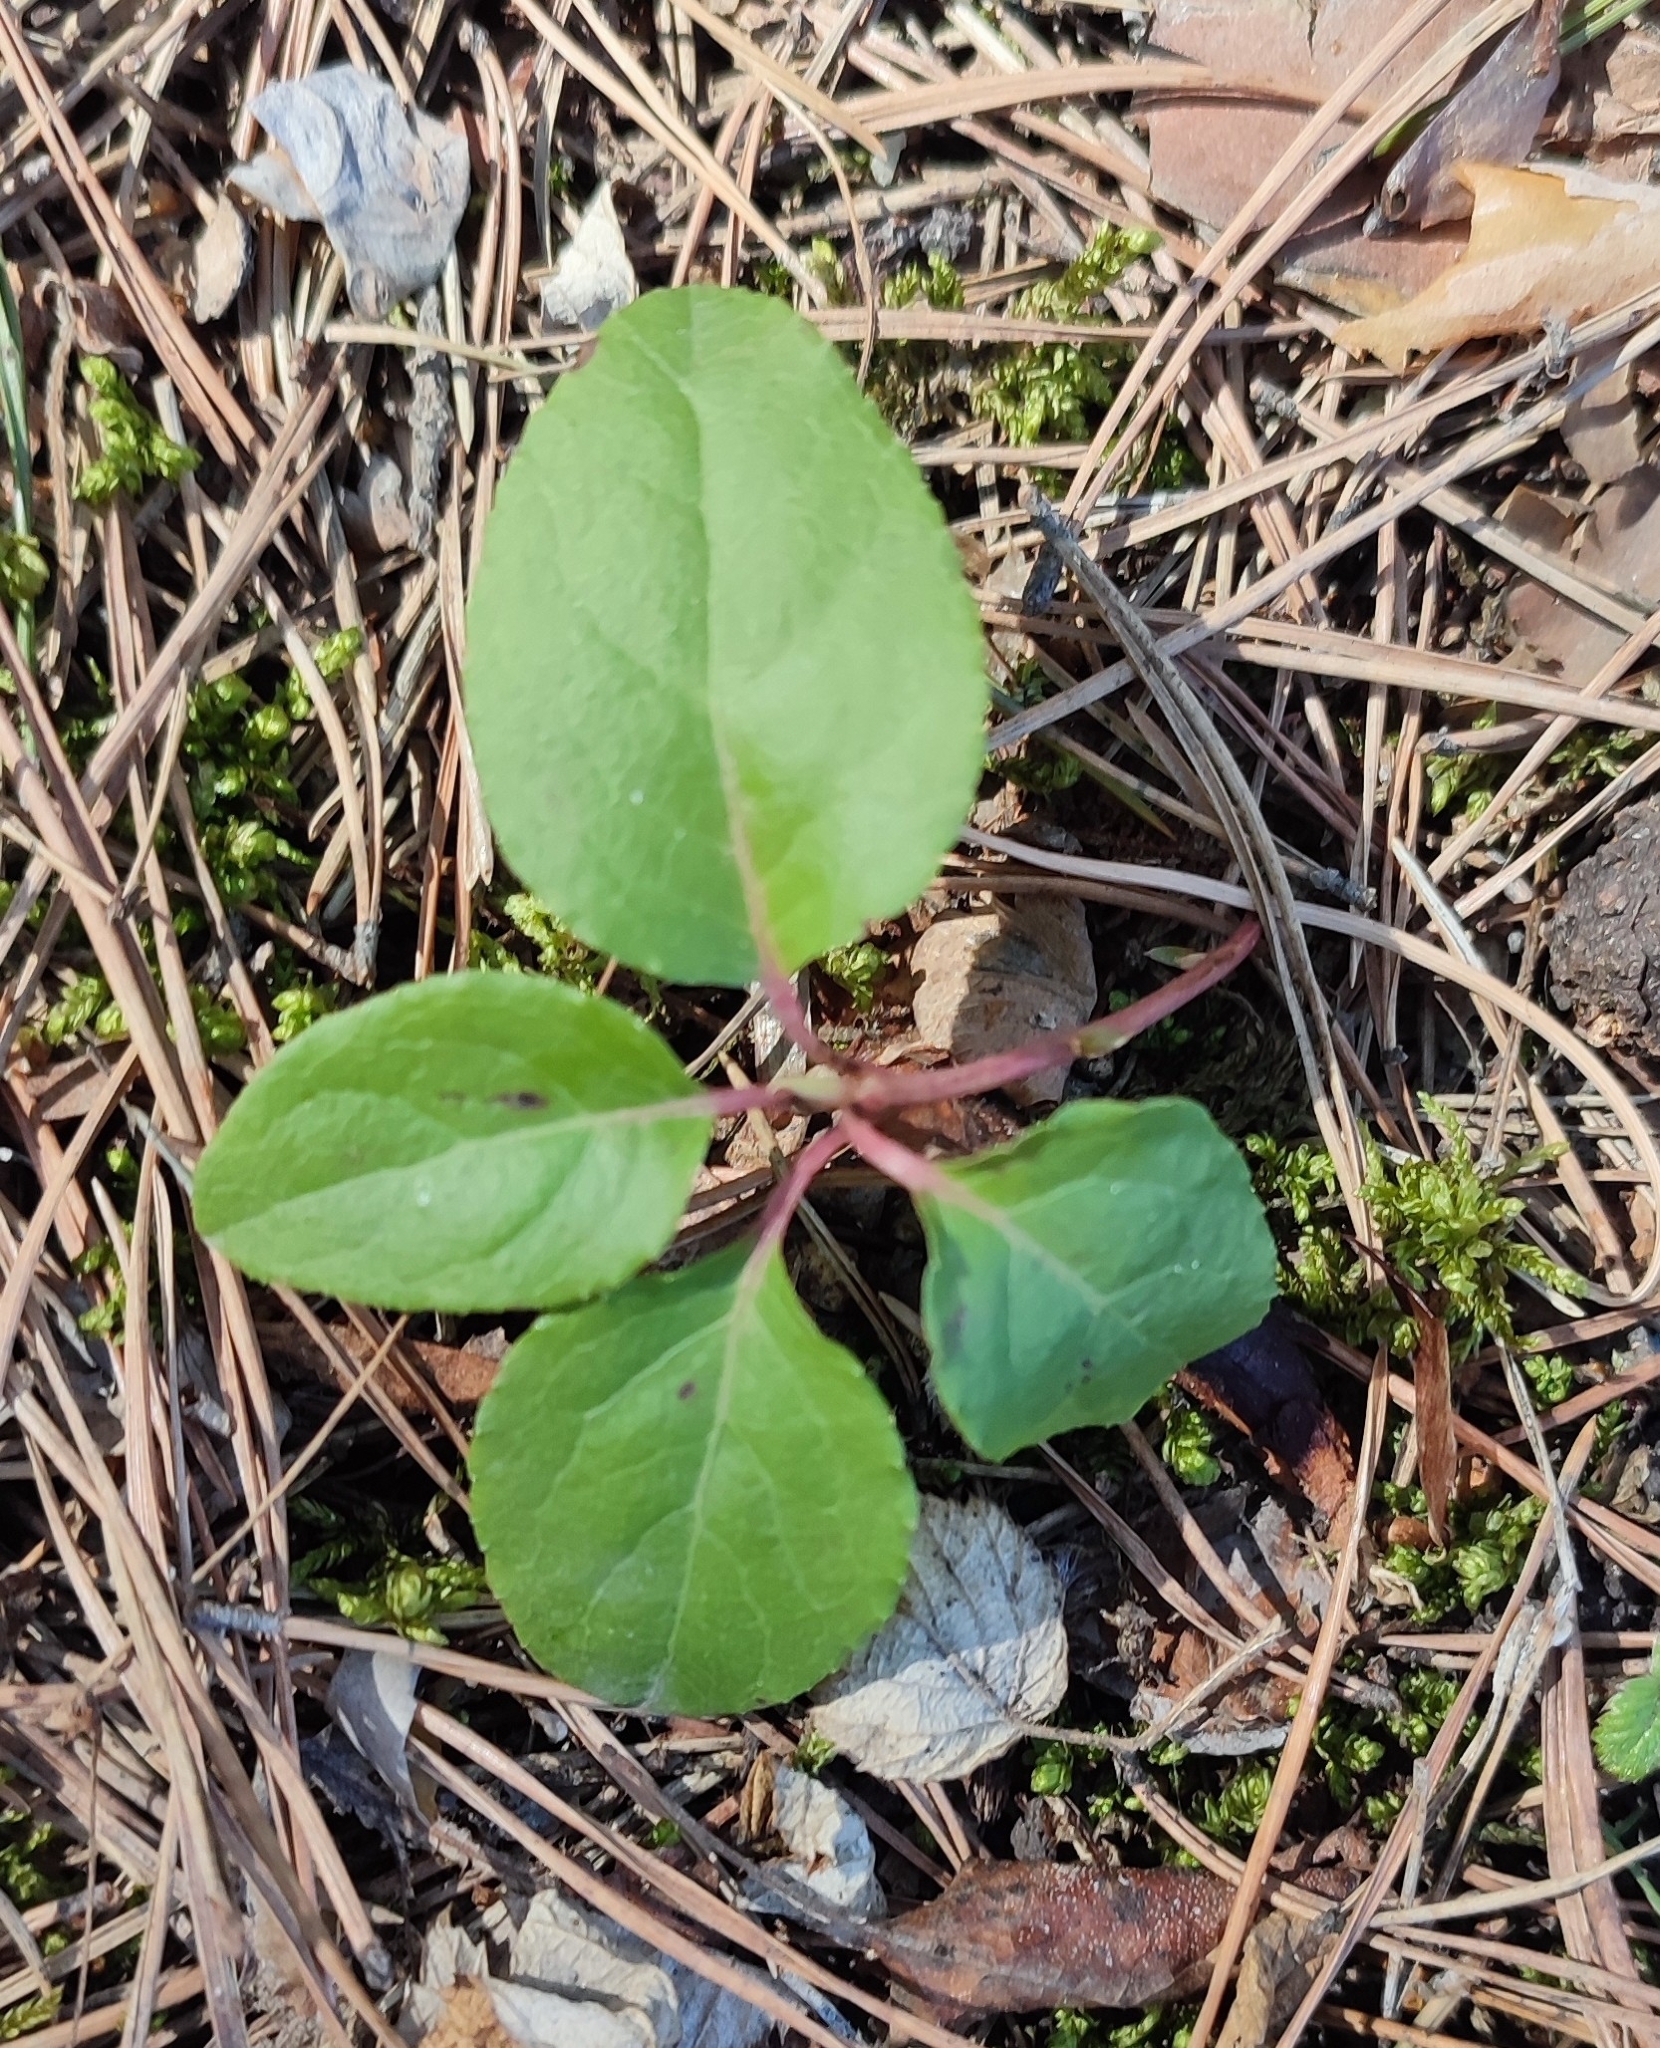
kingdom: Plantae
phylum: Tracheophyta
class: Magnoliopsida
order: Ericales
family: Ericaceae
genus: Orthilia
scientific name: Orthilia secunda
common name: One-sided orthilia
